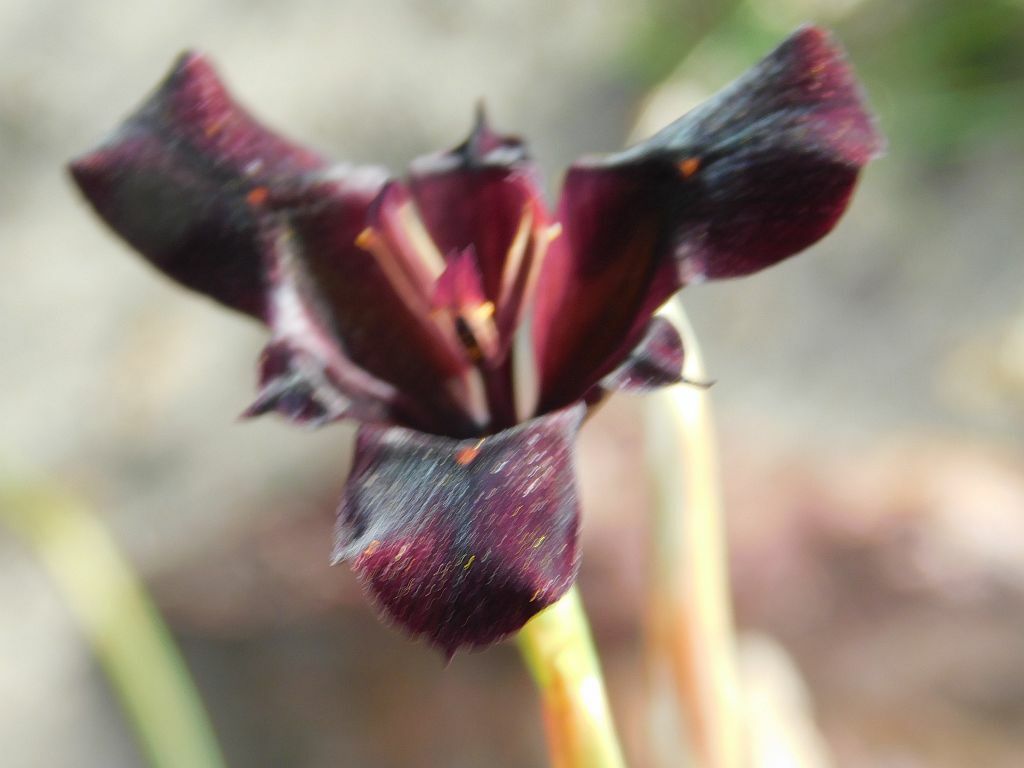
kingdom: Plantae
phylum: Tracheophyta
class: Liliopsida
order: Asparagales
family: Iridaceae
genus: Moraea
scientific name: Moraea lurida
